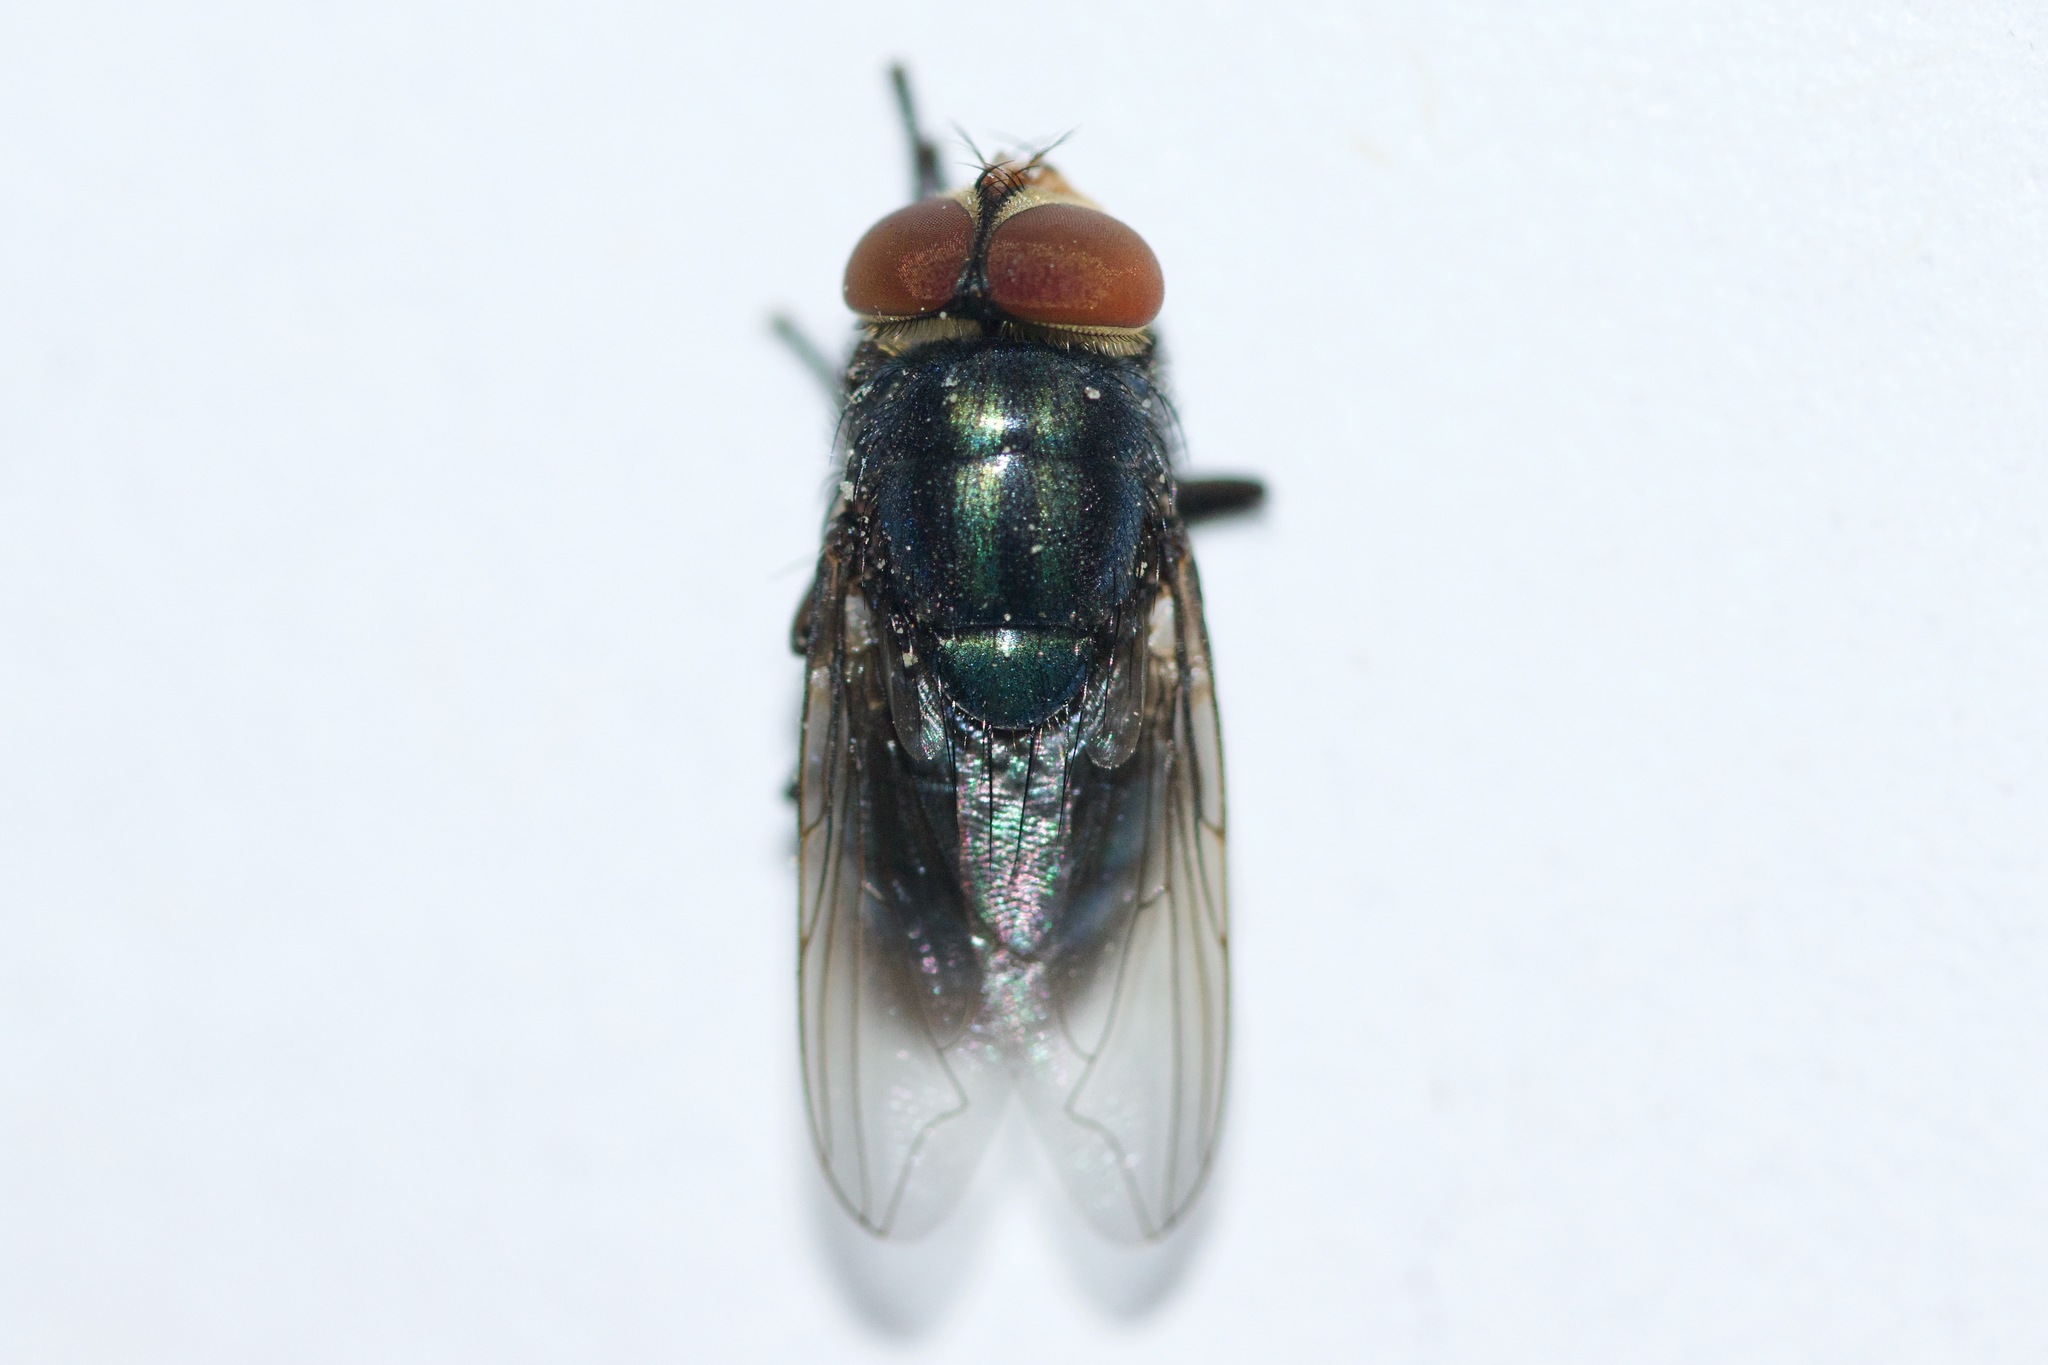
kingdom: Animalia
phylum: Arthropoda
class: Insecta
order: Diptera
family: Calliphoridae
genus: Cochliomyia
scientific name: Cochliomyia macellaria
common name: Secondary screwworm
